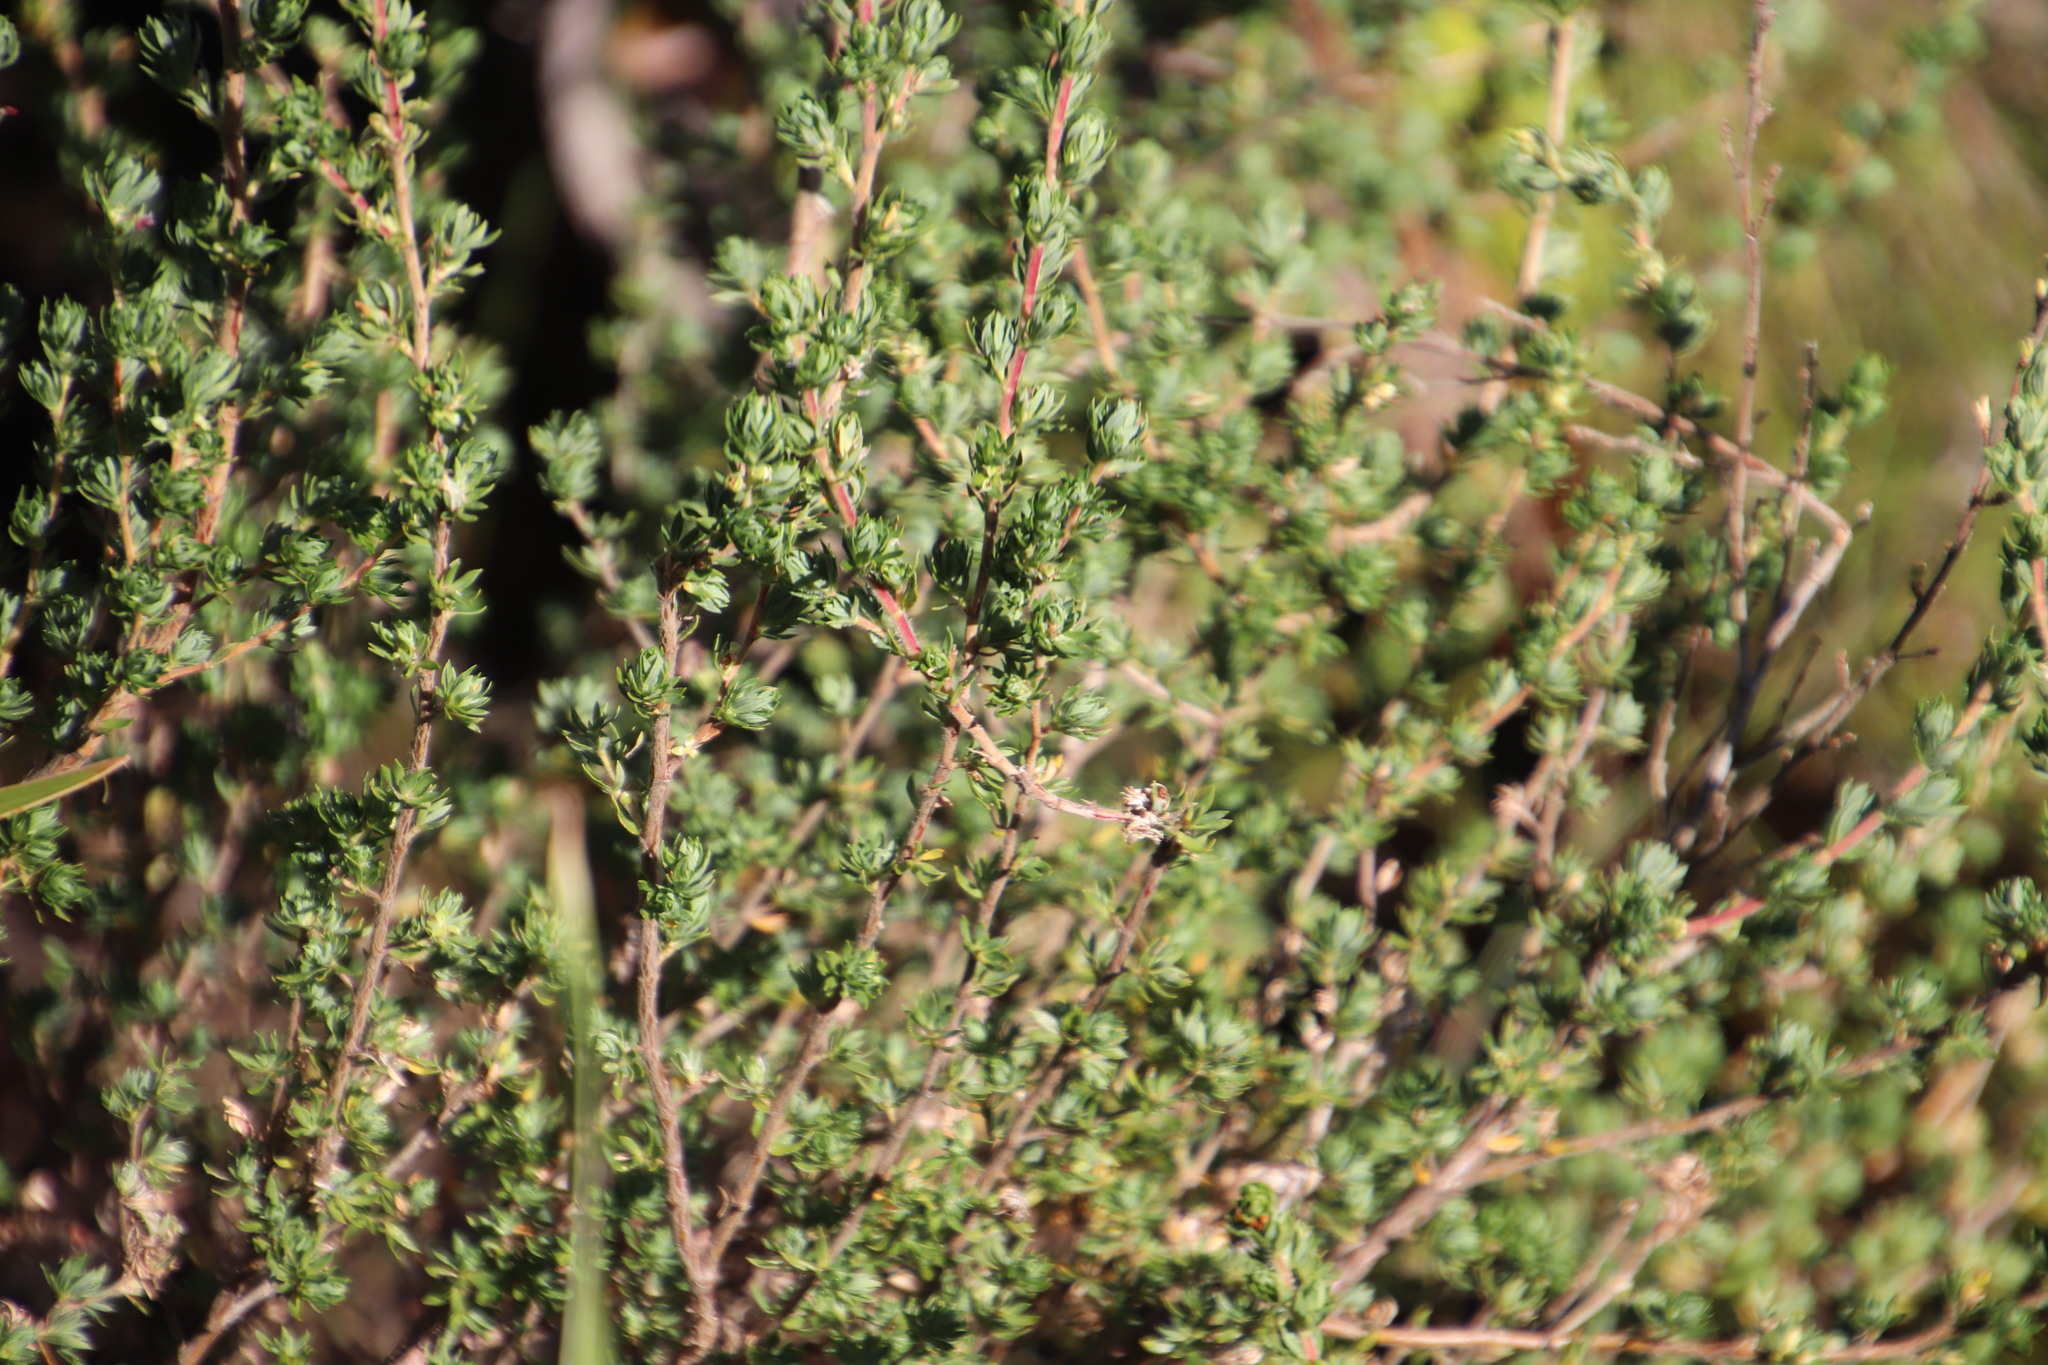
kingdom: Plantae
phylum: Tracheophyta
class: Magnoliopsida
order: Rosales
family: Rosaceae
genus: Cliffortia
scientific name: Cliffortia polygonifolia
